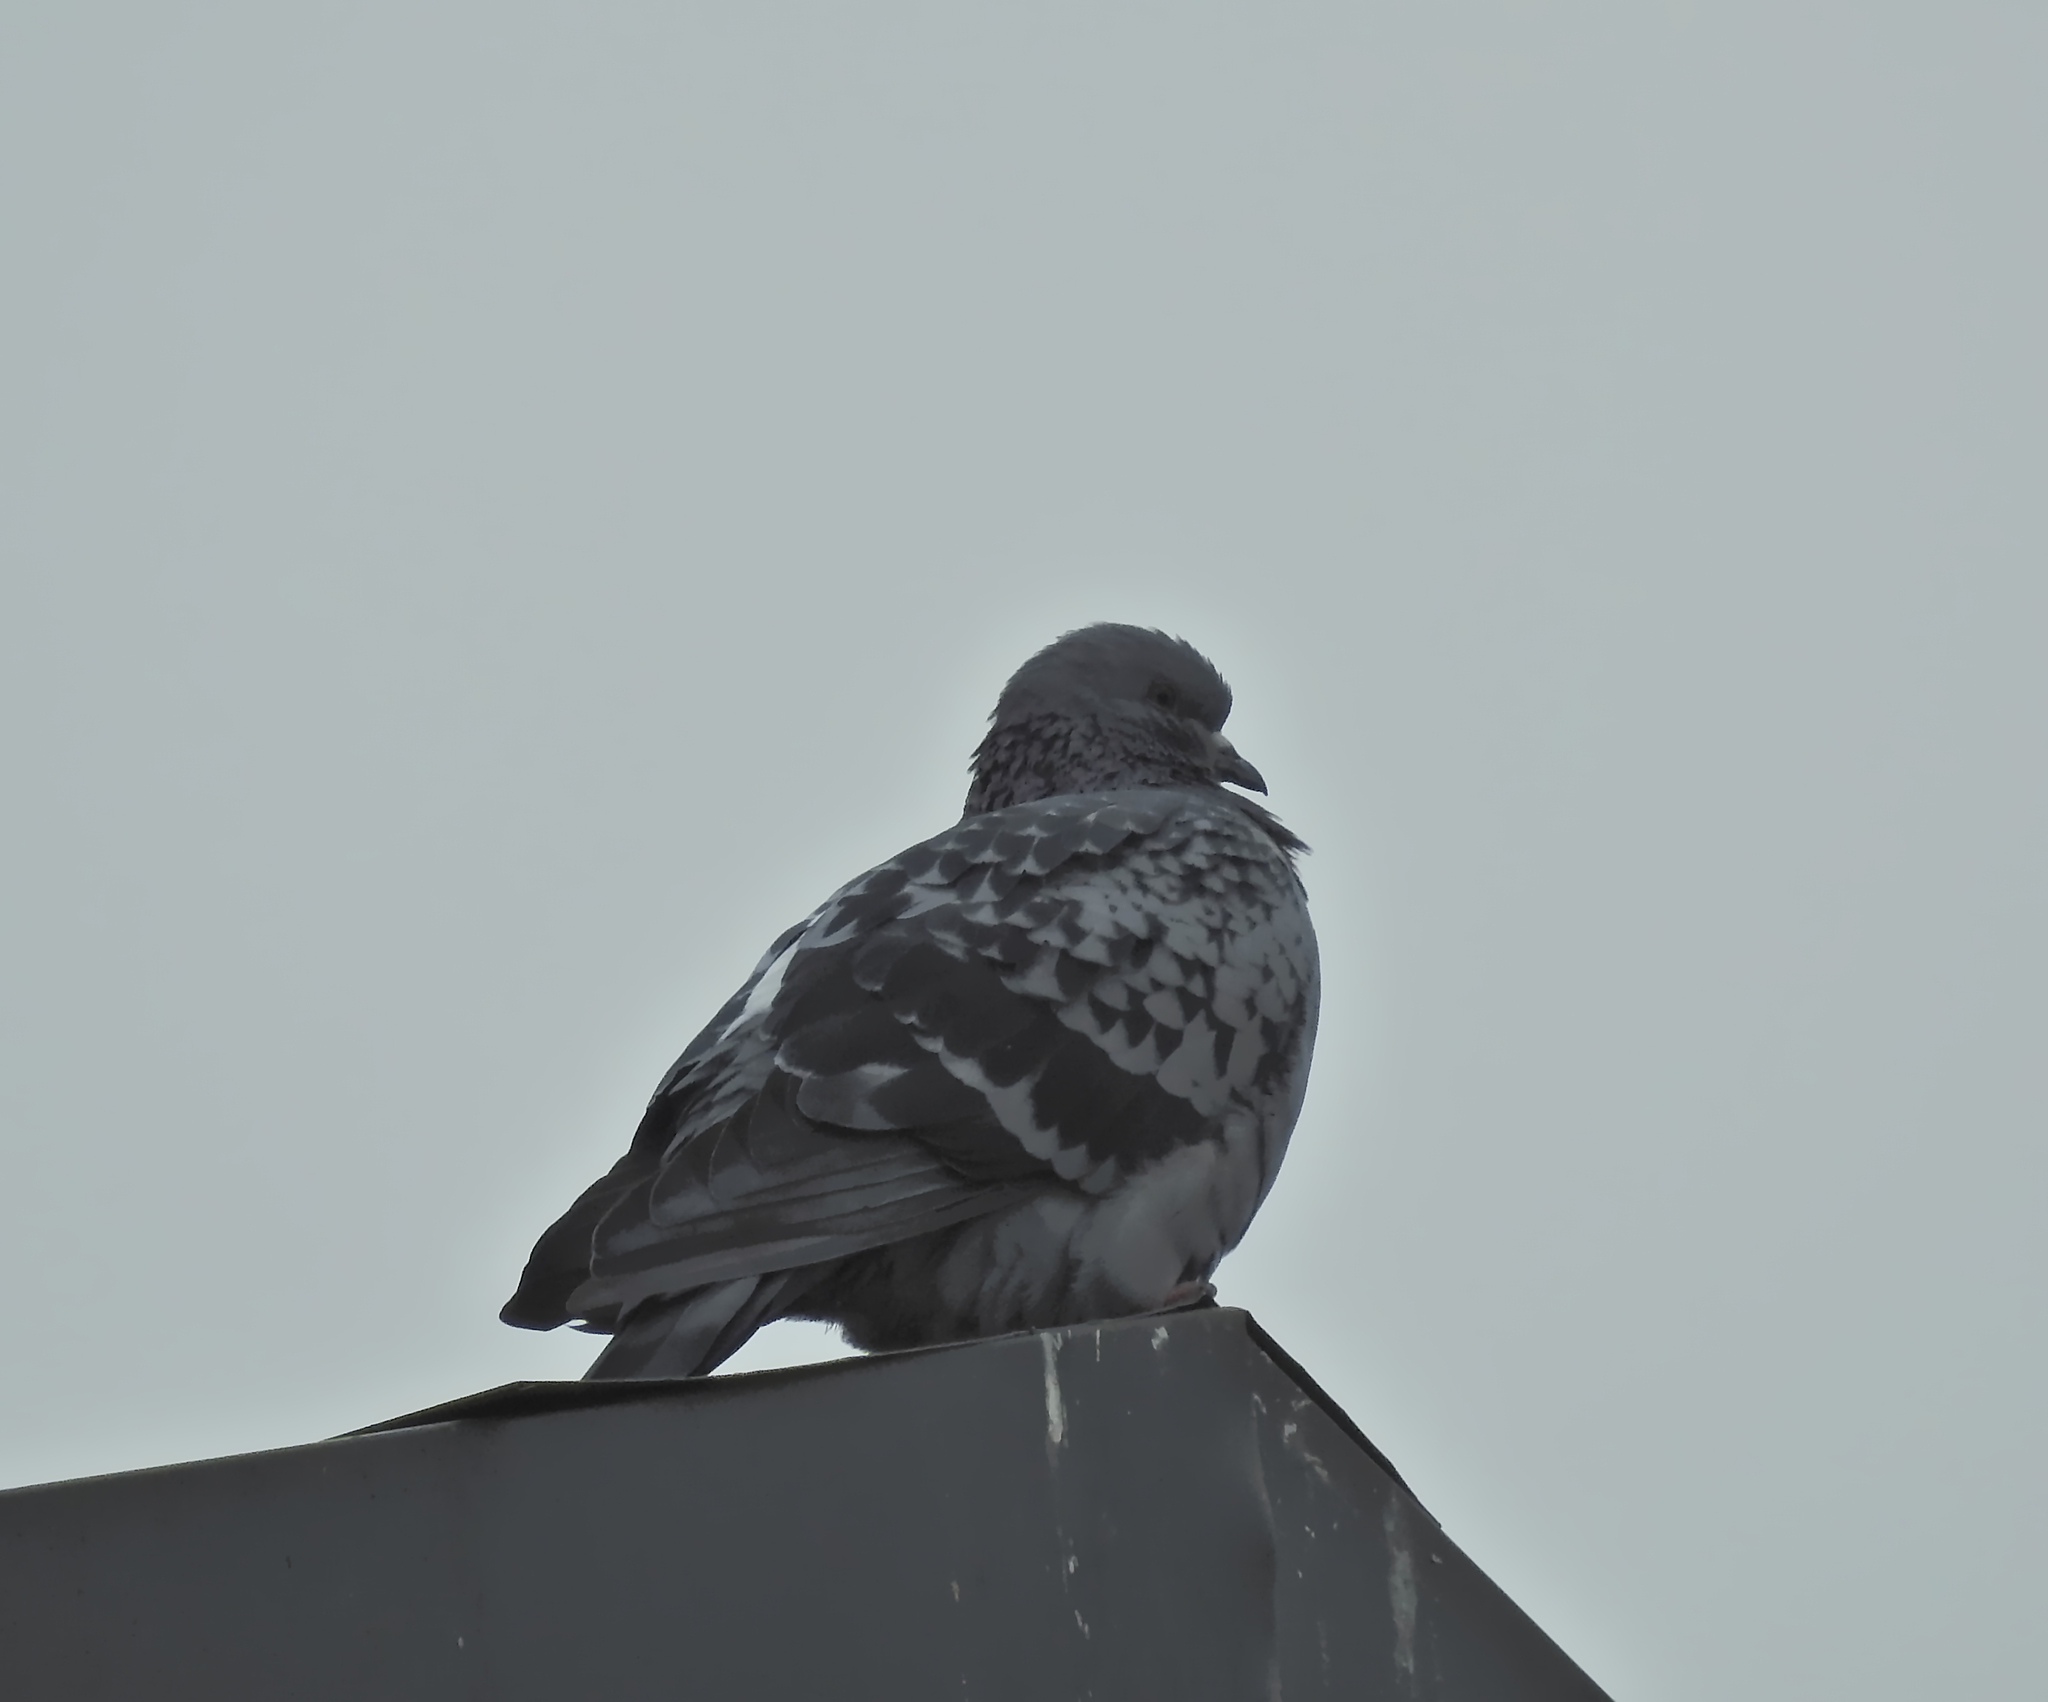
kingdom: Animalia
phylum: Chordata
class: Aves
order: Columbiformes
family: Columbidae
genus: Columba
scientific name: Columba livia
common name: Rock pigeon
